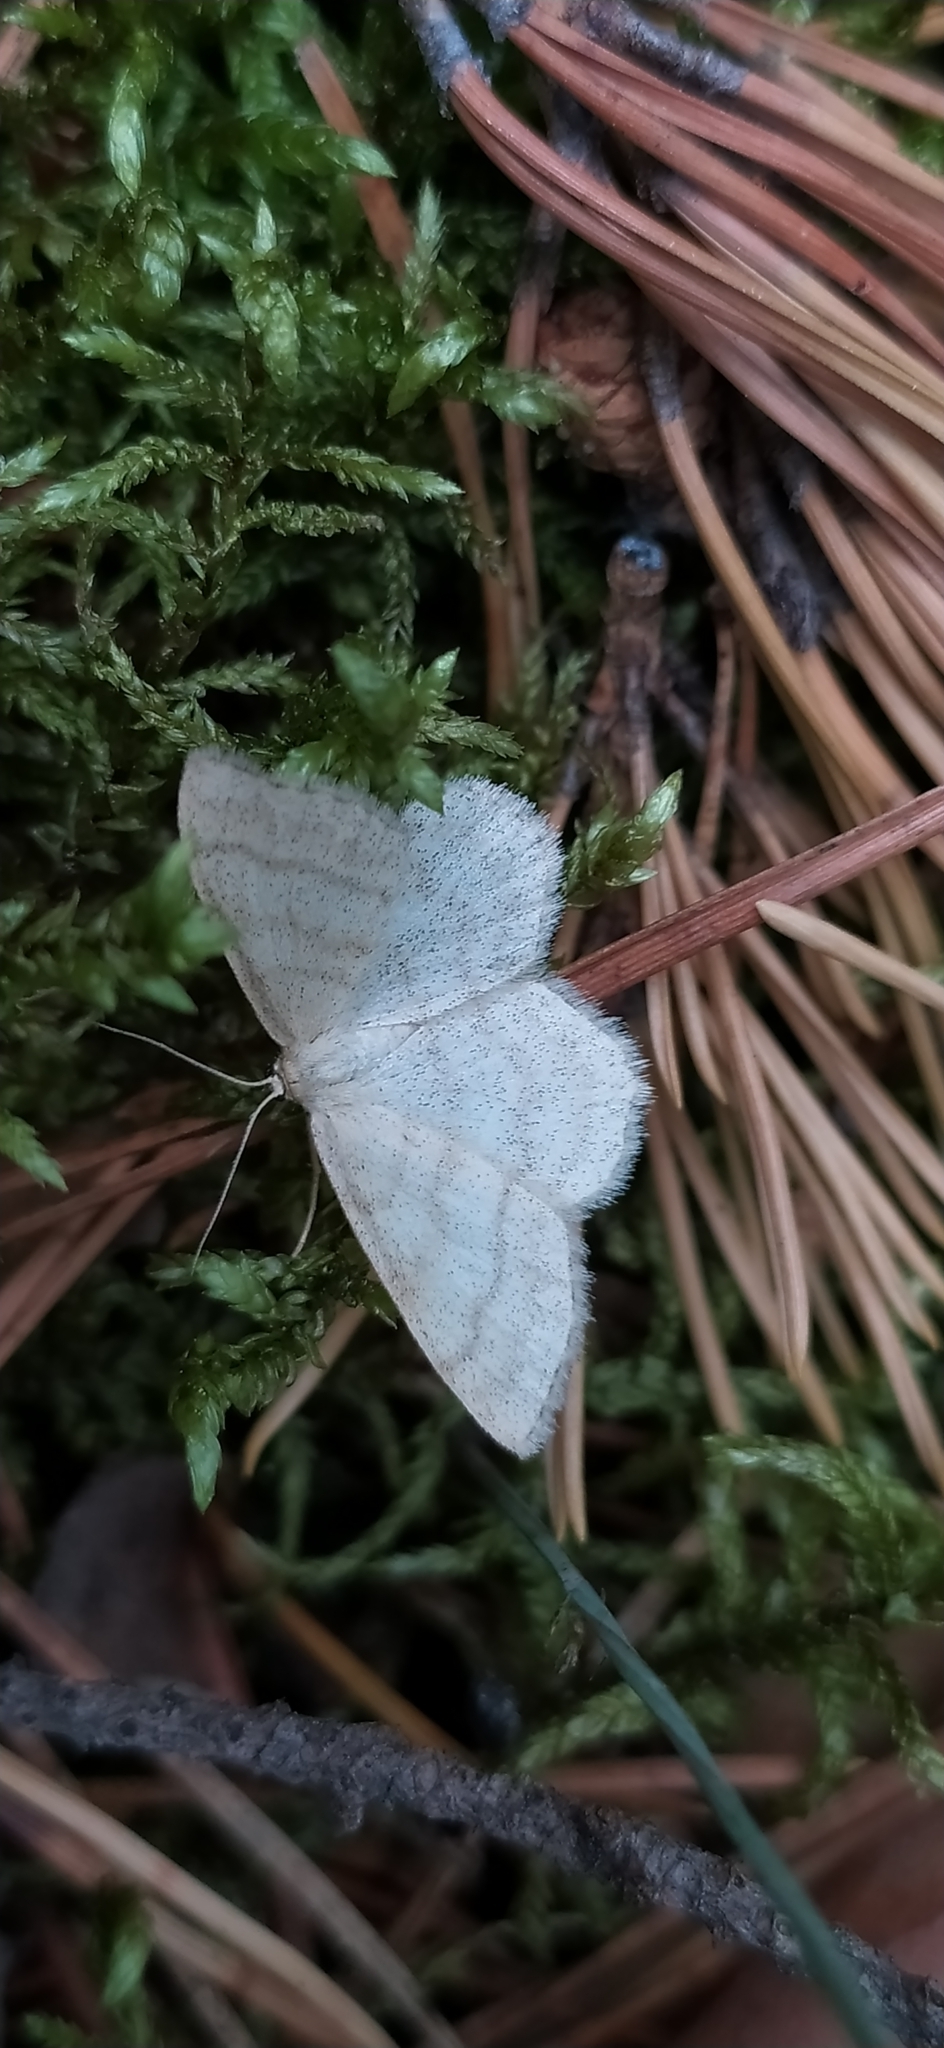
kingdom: Animalia
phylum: Arthropoda
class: Insecta
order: Lepidoptera
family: Geometridae
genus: Scopula
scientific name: Scopula ternata
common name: Smoky wave
